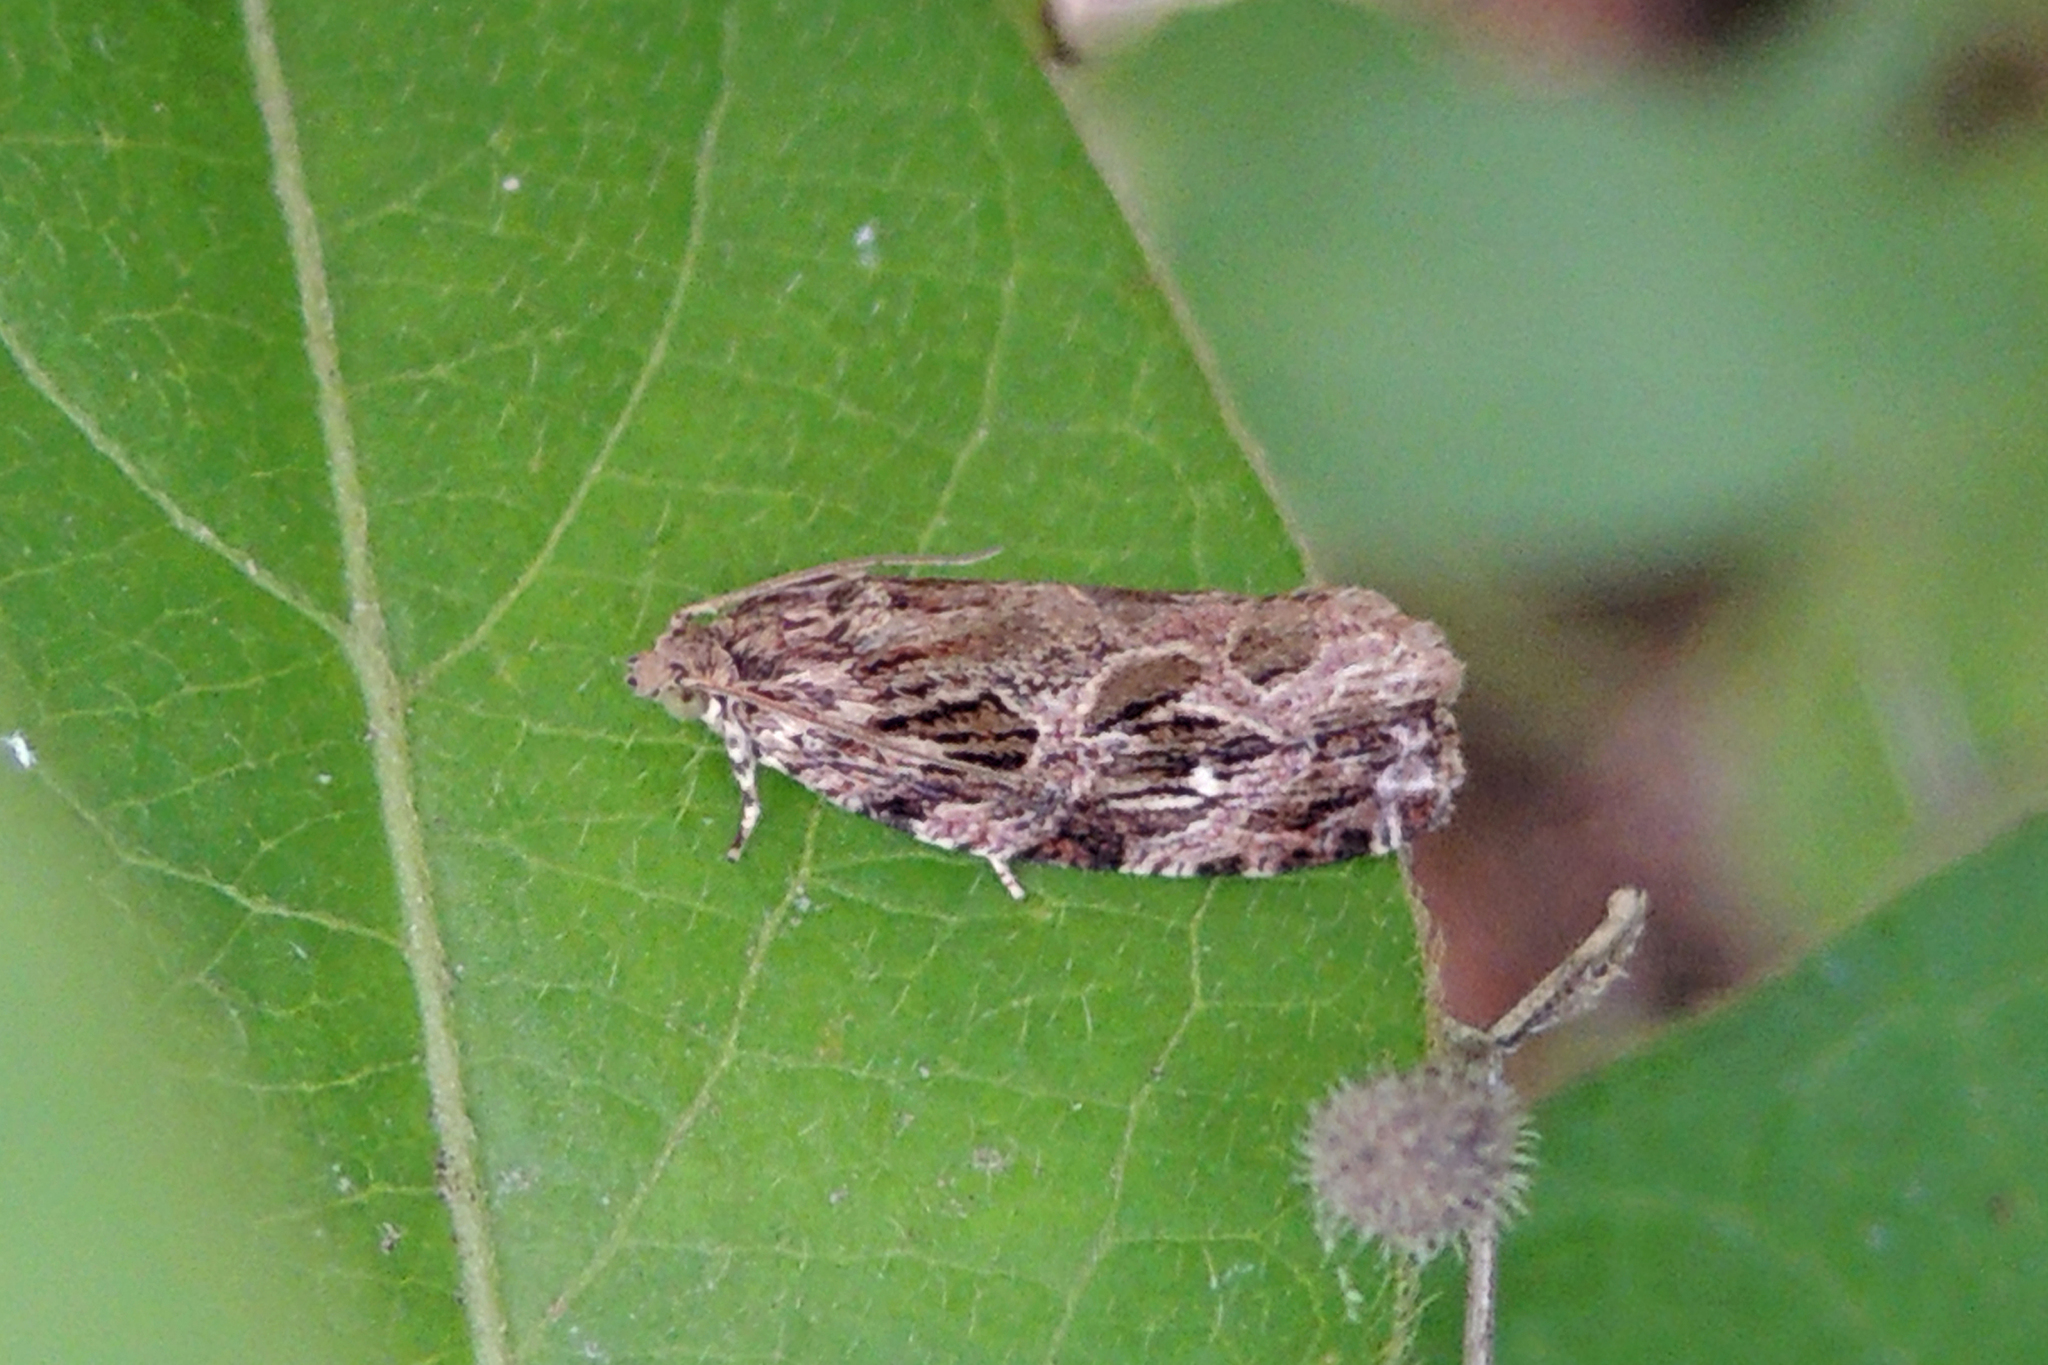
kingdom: Animalia
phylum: Arthropoda
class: Insecta
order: Lepidoptera
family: Tortricidae
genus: Phaecasiophora
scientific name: Phaecasiophora confixana
